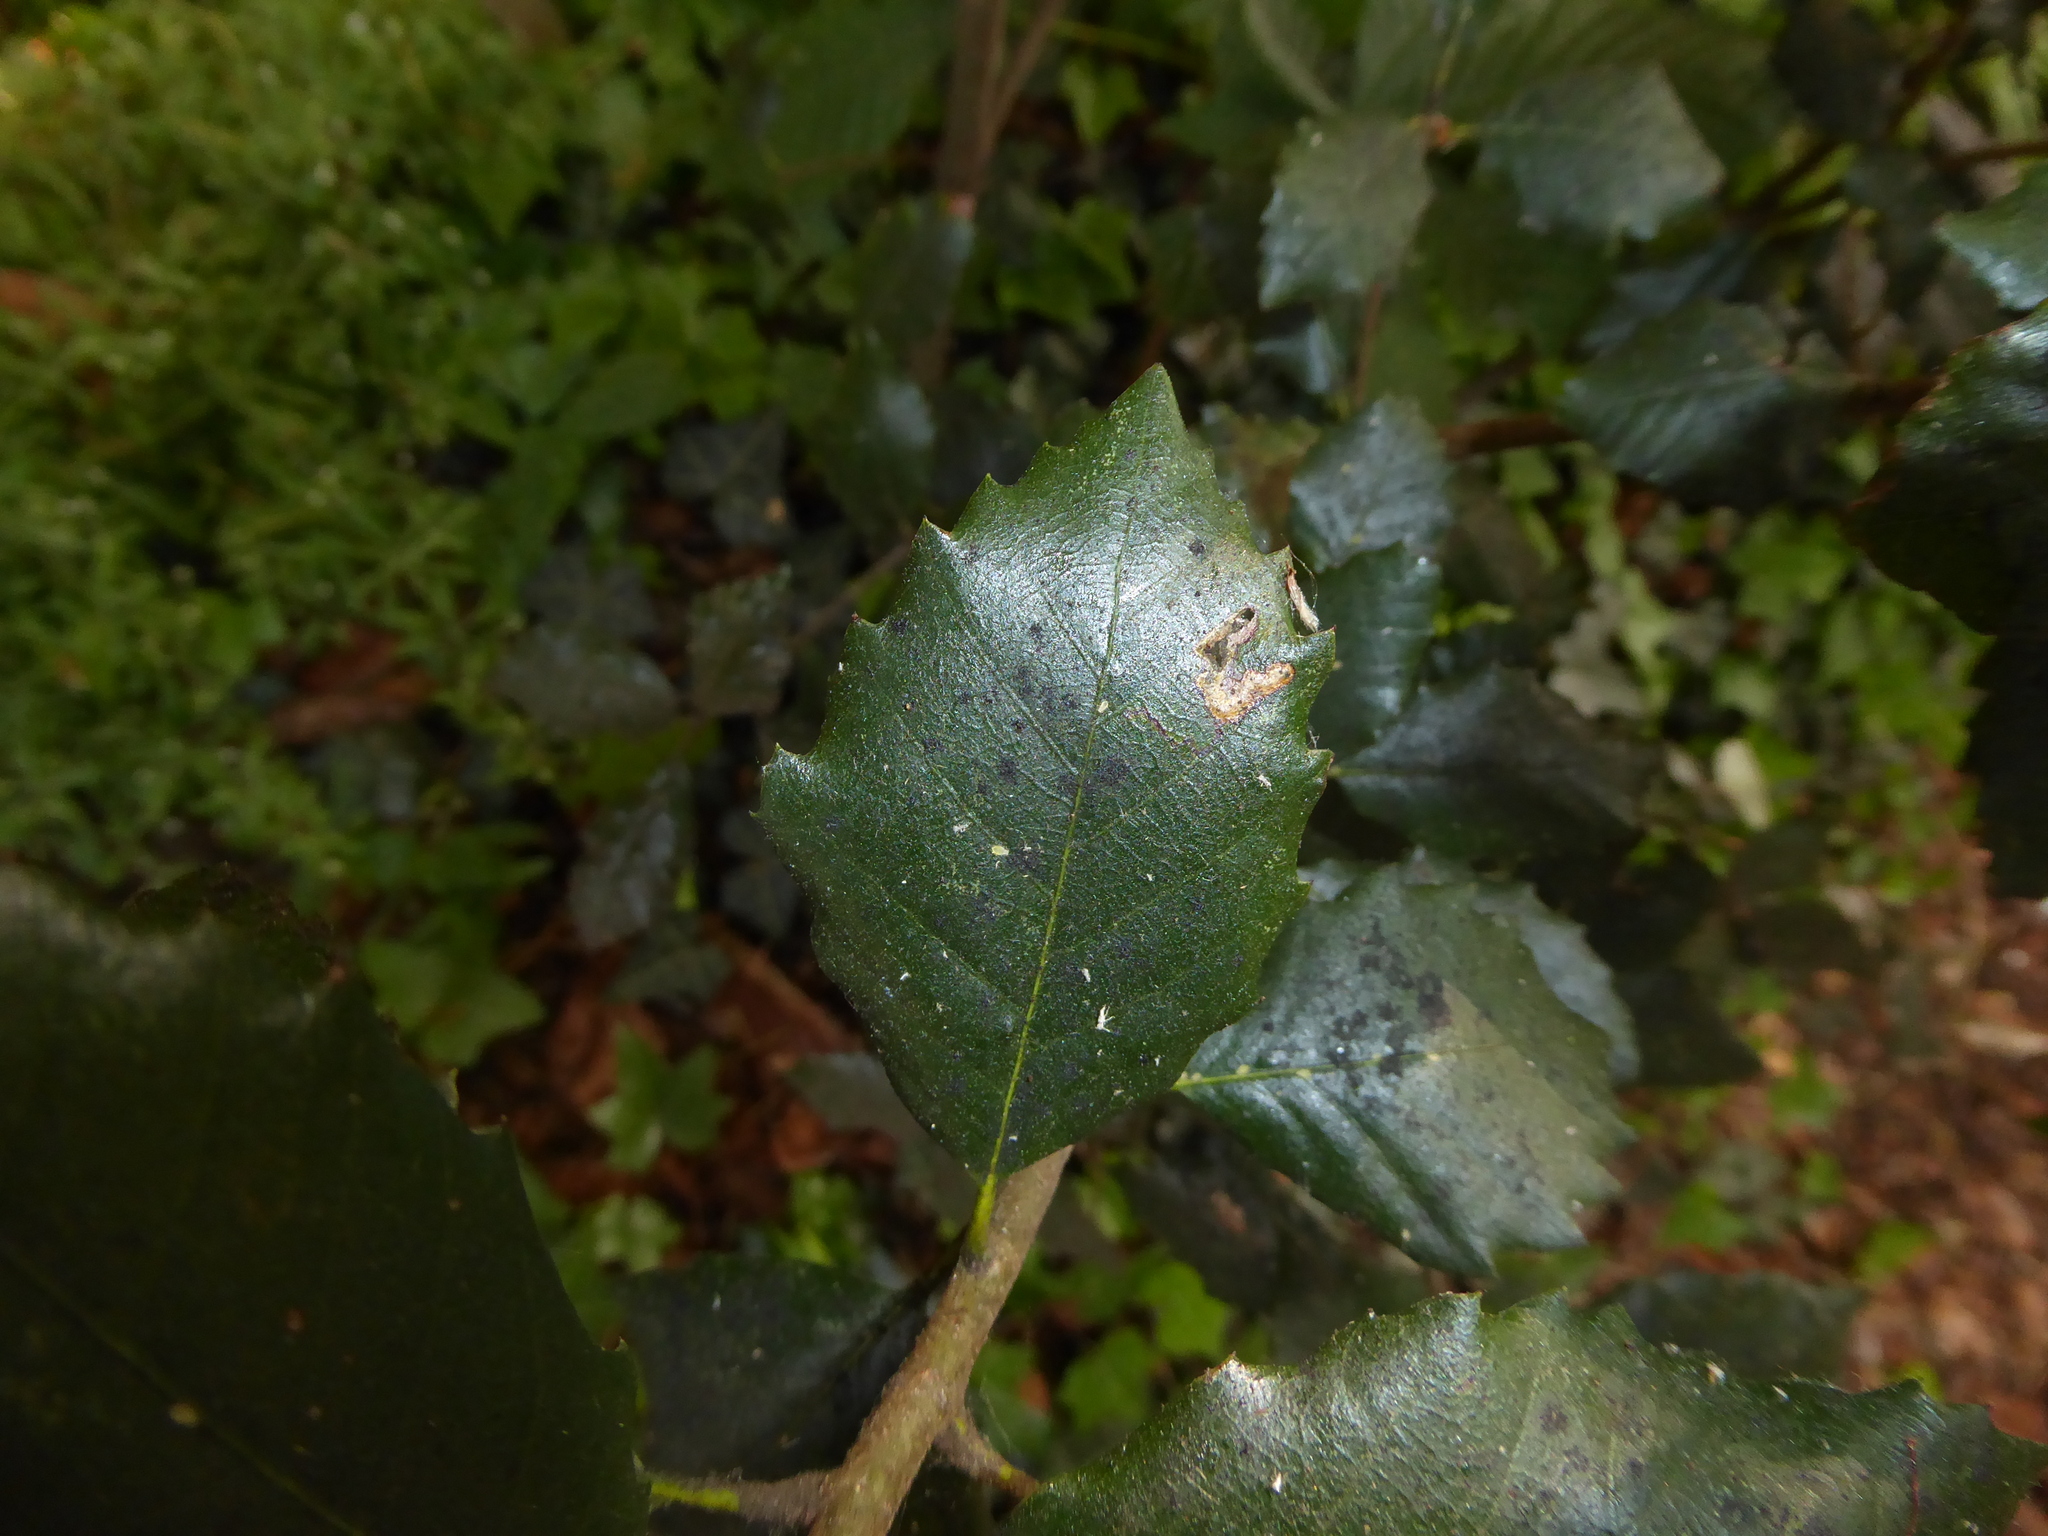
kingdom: Plantae
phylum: Tracheophyta
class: Magnoliopsida
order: Fagales
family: Fagaceae
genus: Quercus
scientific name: Quercus ilex
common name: Evergreen oak
